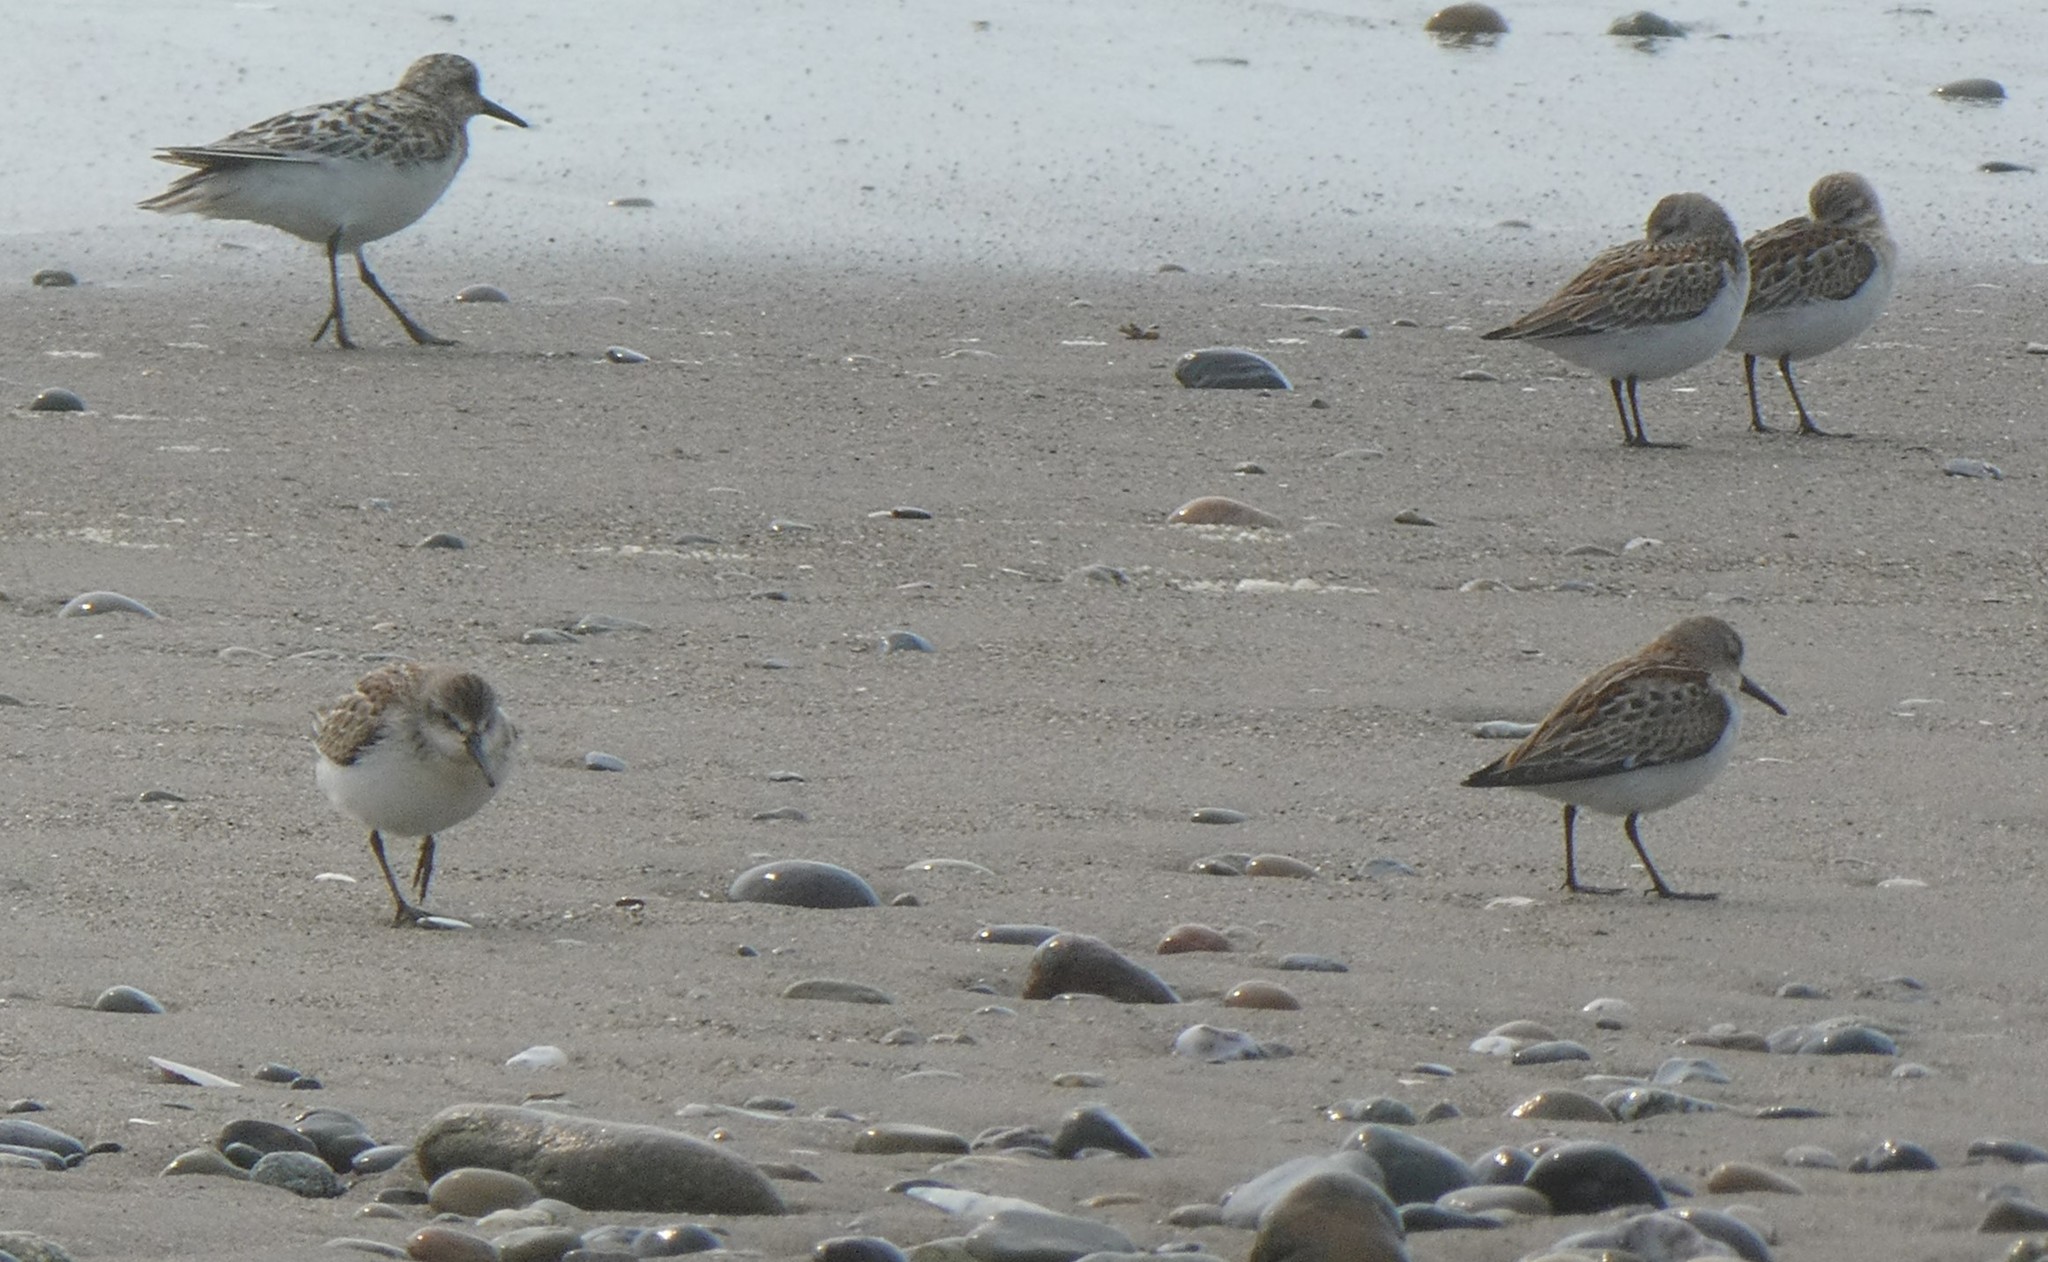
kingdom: Animalia
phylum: Chordata
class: Aves
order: Charadriiformes
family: Scolopacidae
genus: Calidris
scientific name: Calidris mauri
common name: Western sandpiper
